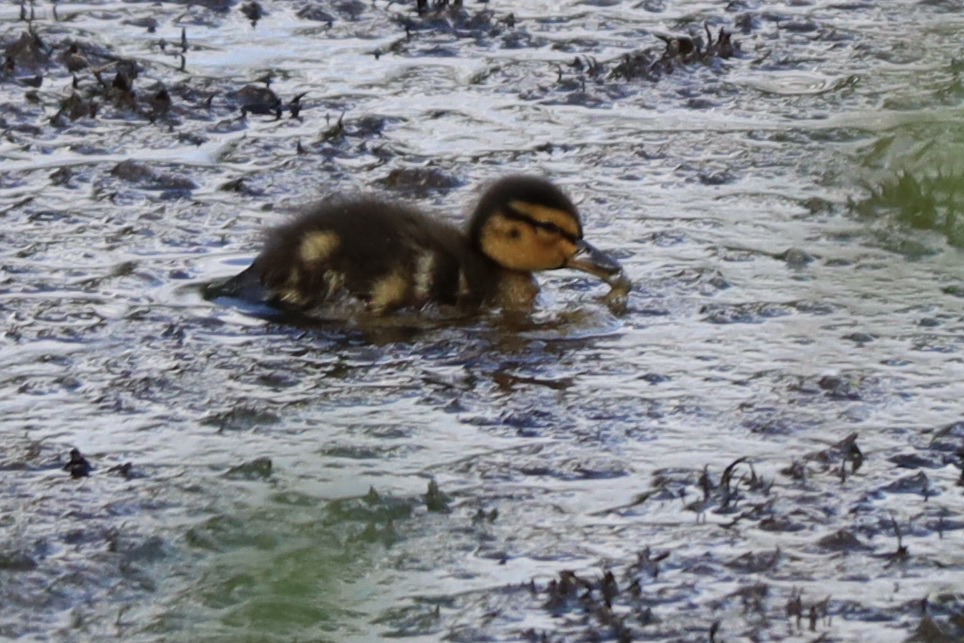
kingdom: Animalia
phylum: Chordata
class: Aves
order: Anseriformes
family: Anatidae
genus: Anas
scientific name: Anas platyrhynchos
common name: Mallard
